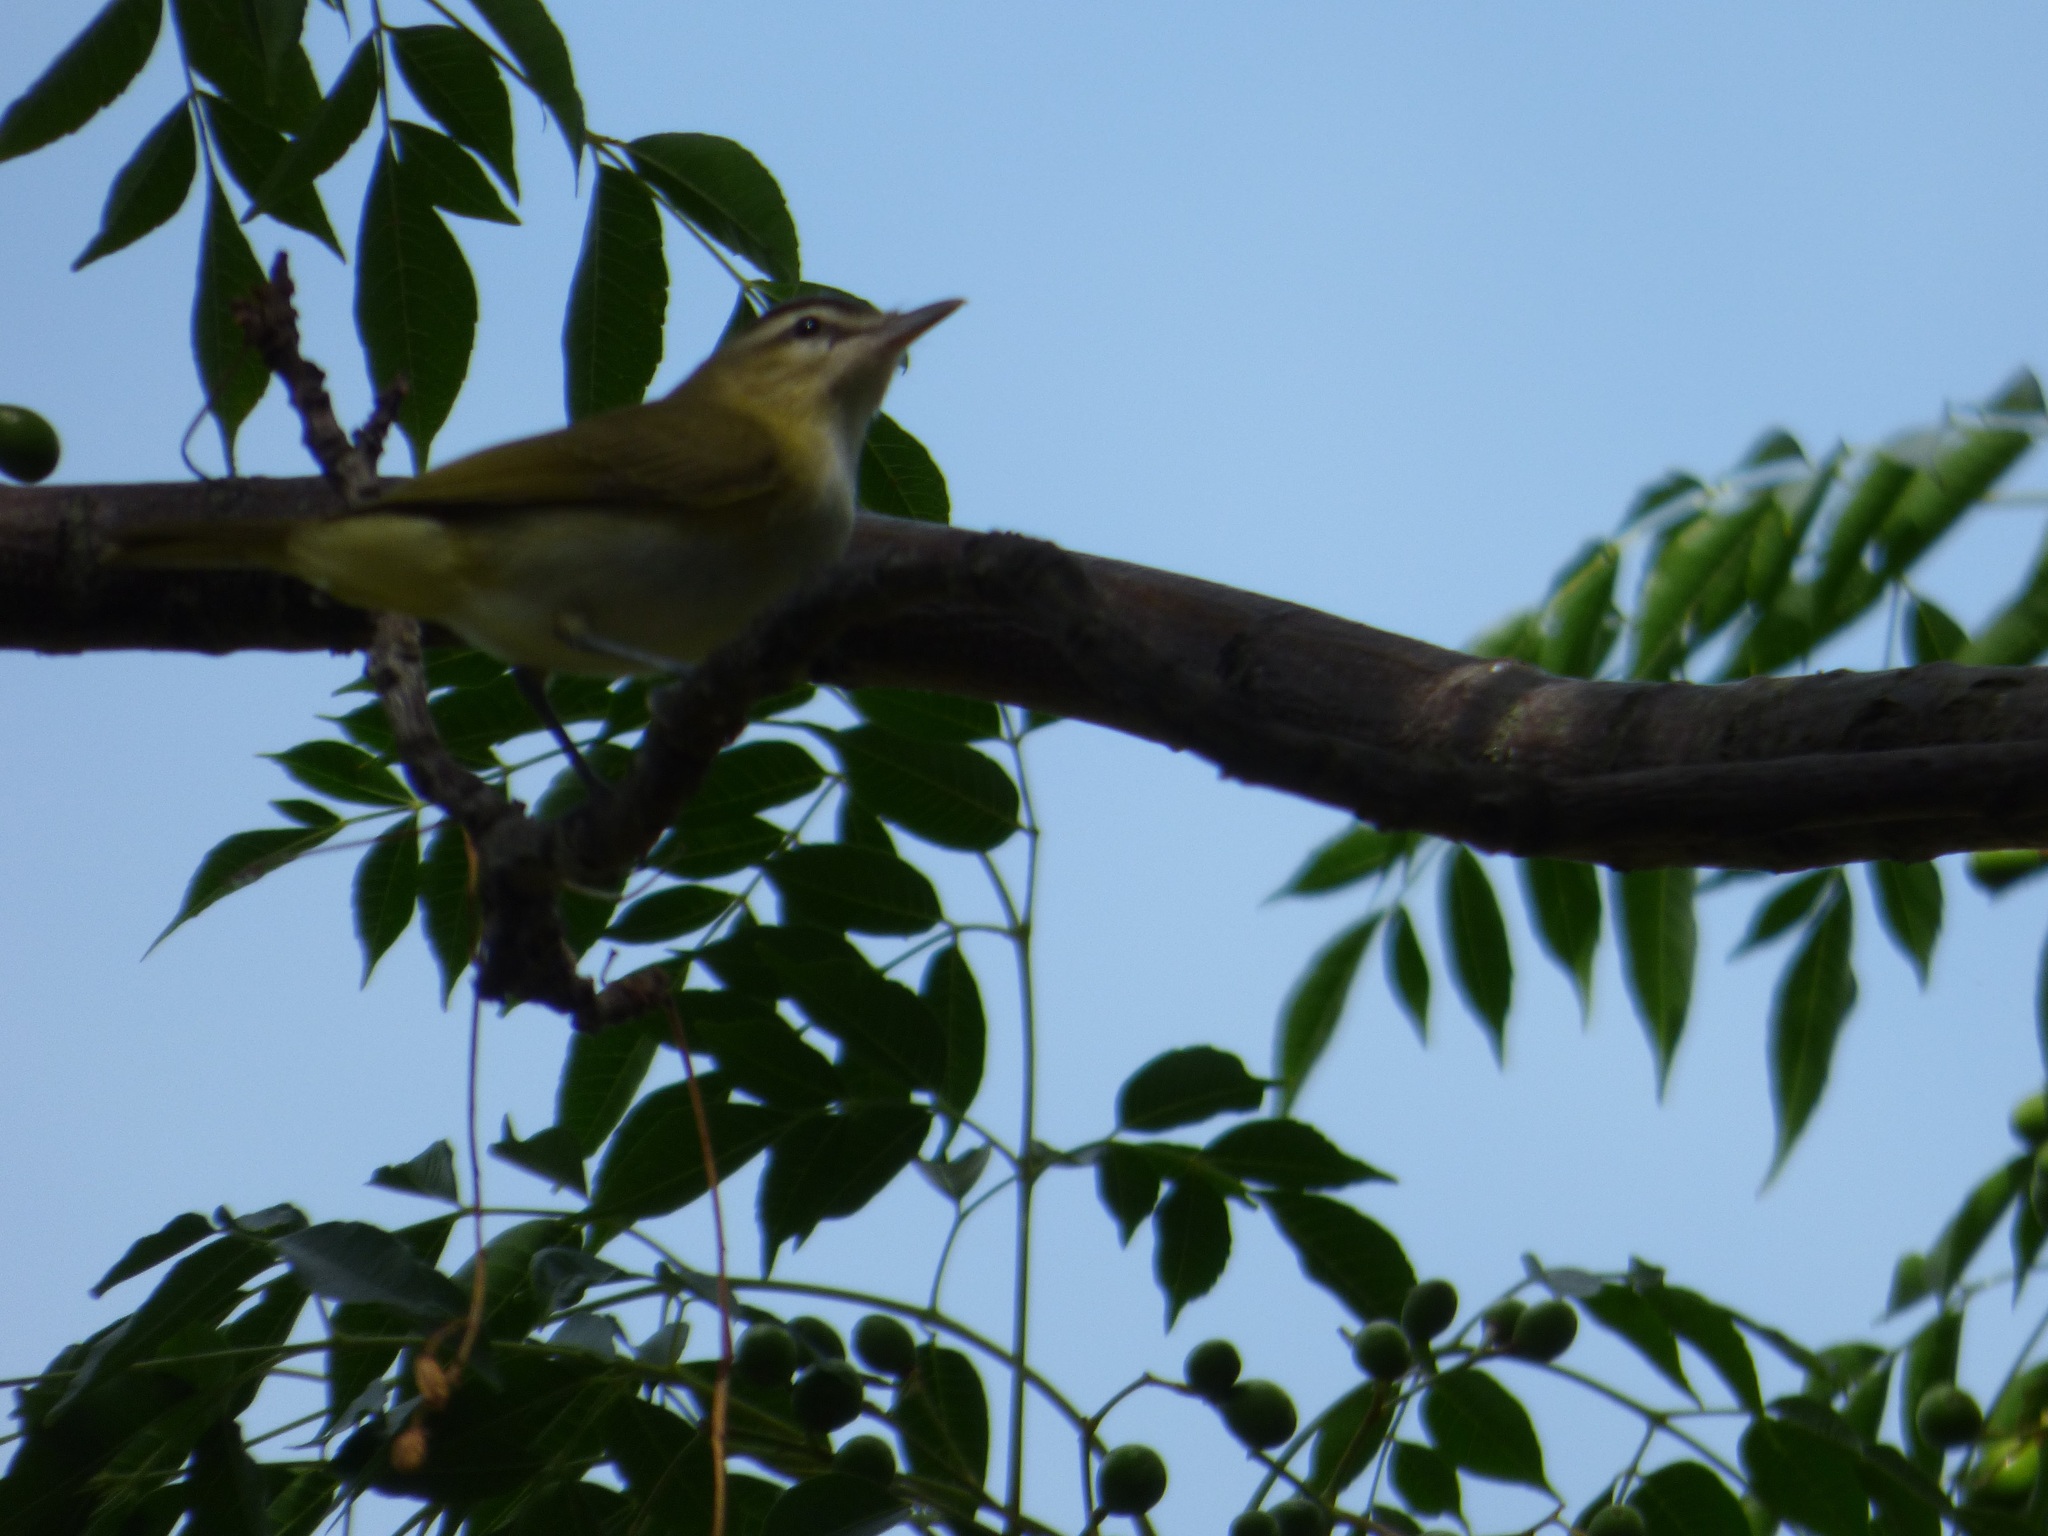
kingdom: Animalia
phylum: Chordata
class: Aves
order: Passeriformes
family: Vireonidae
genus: Vireo
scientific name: Vireo olivaceus
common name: Red-eyed vireo
